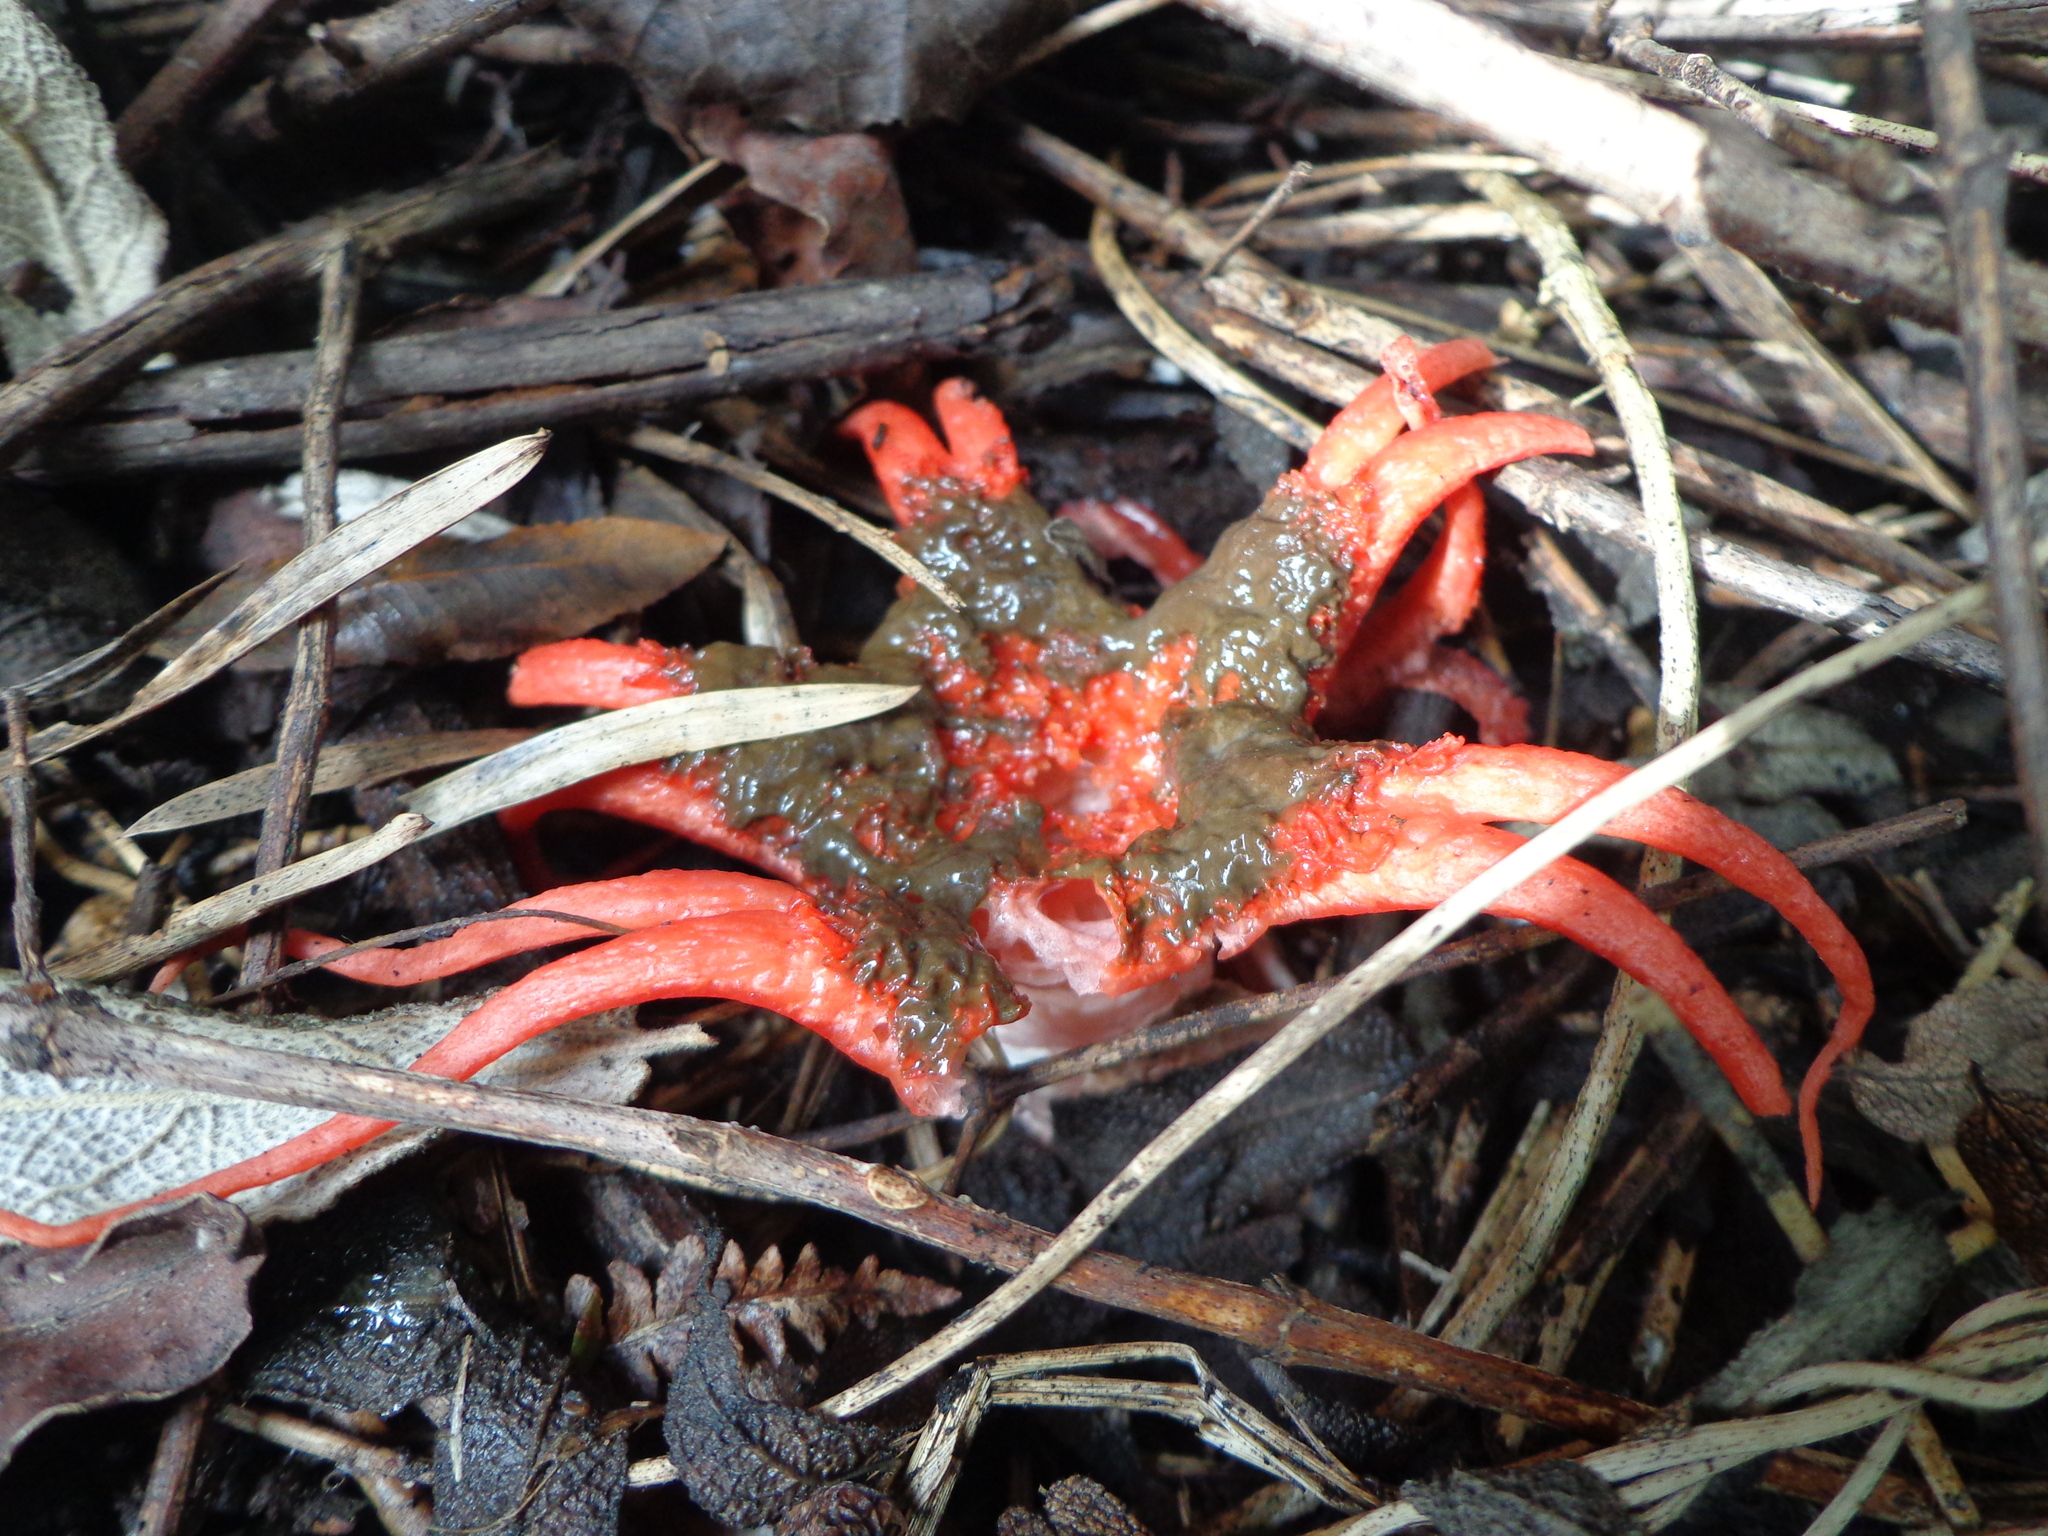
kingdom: Fungi
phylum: Basidiomycota
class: Agaricomycetes
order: Phallales
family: Phallaceae
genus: Aseroe
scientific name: Aseroe rubra
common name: Starfish fungus
